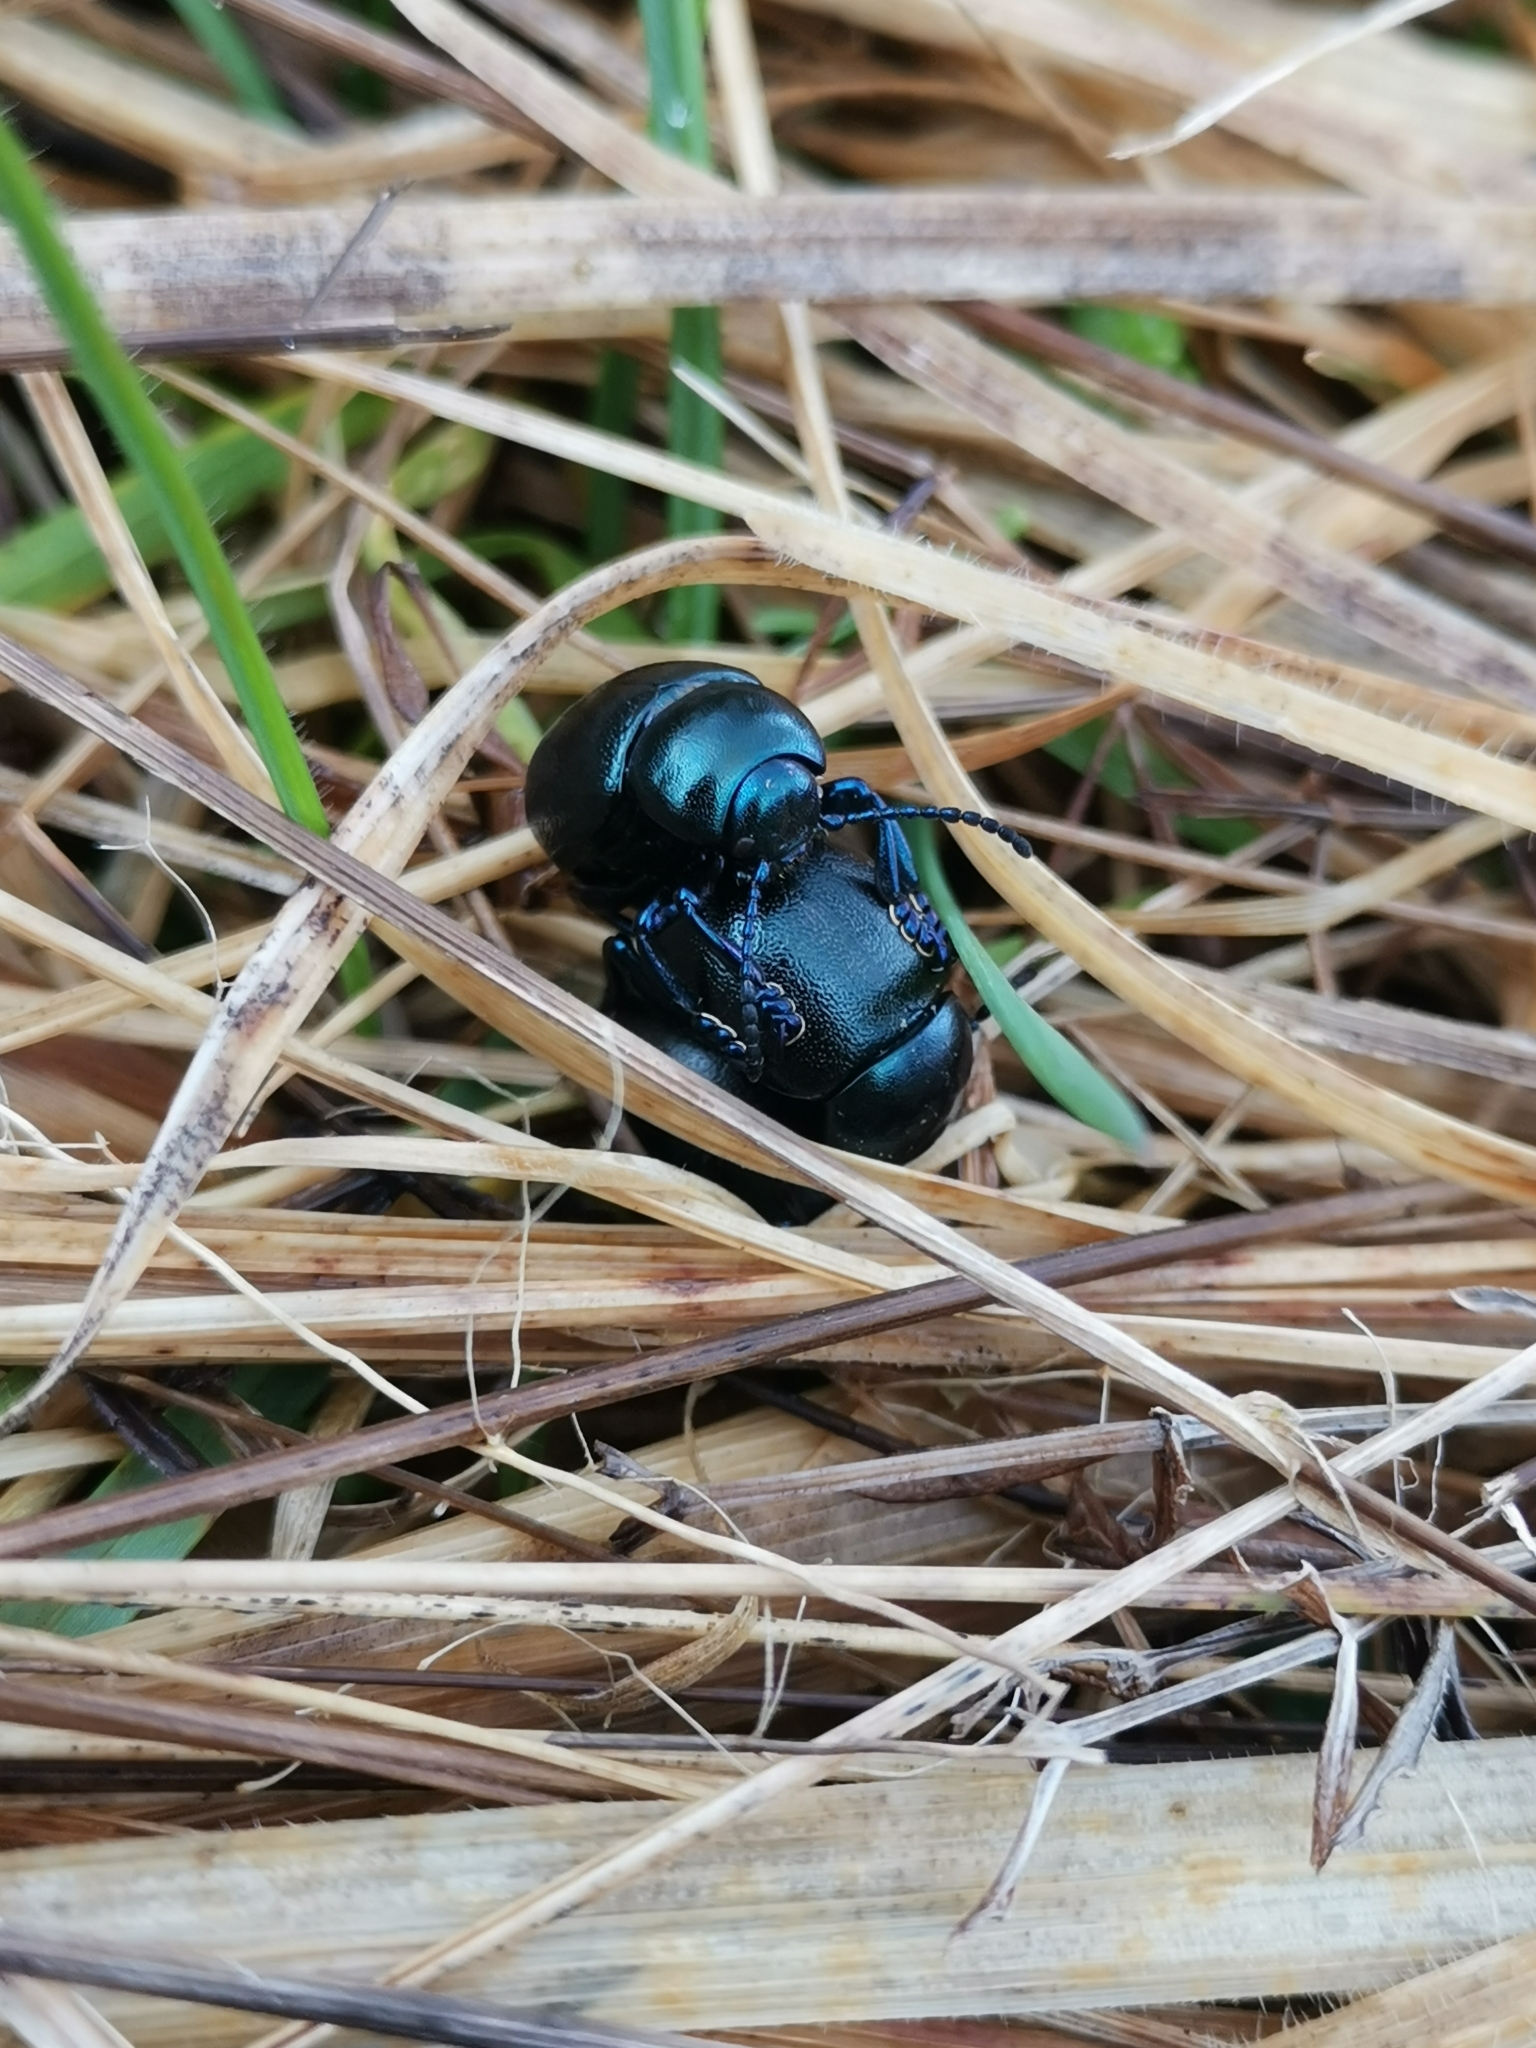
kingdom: Animalia
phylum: Arthropoda
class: Insecta
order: Coleoptera
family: Chrysomelidae
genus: Timarcha
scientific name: Timarcha goettingensis
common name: Small bloody-nosed beetle
